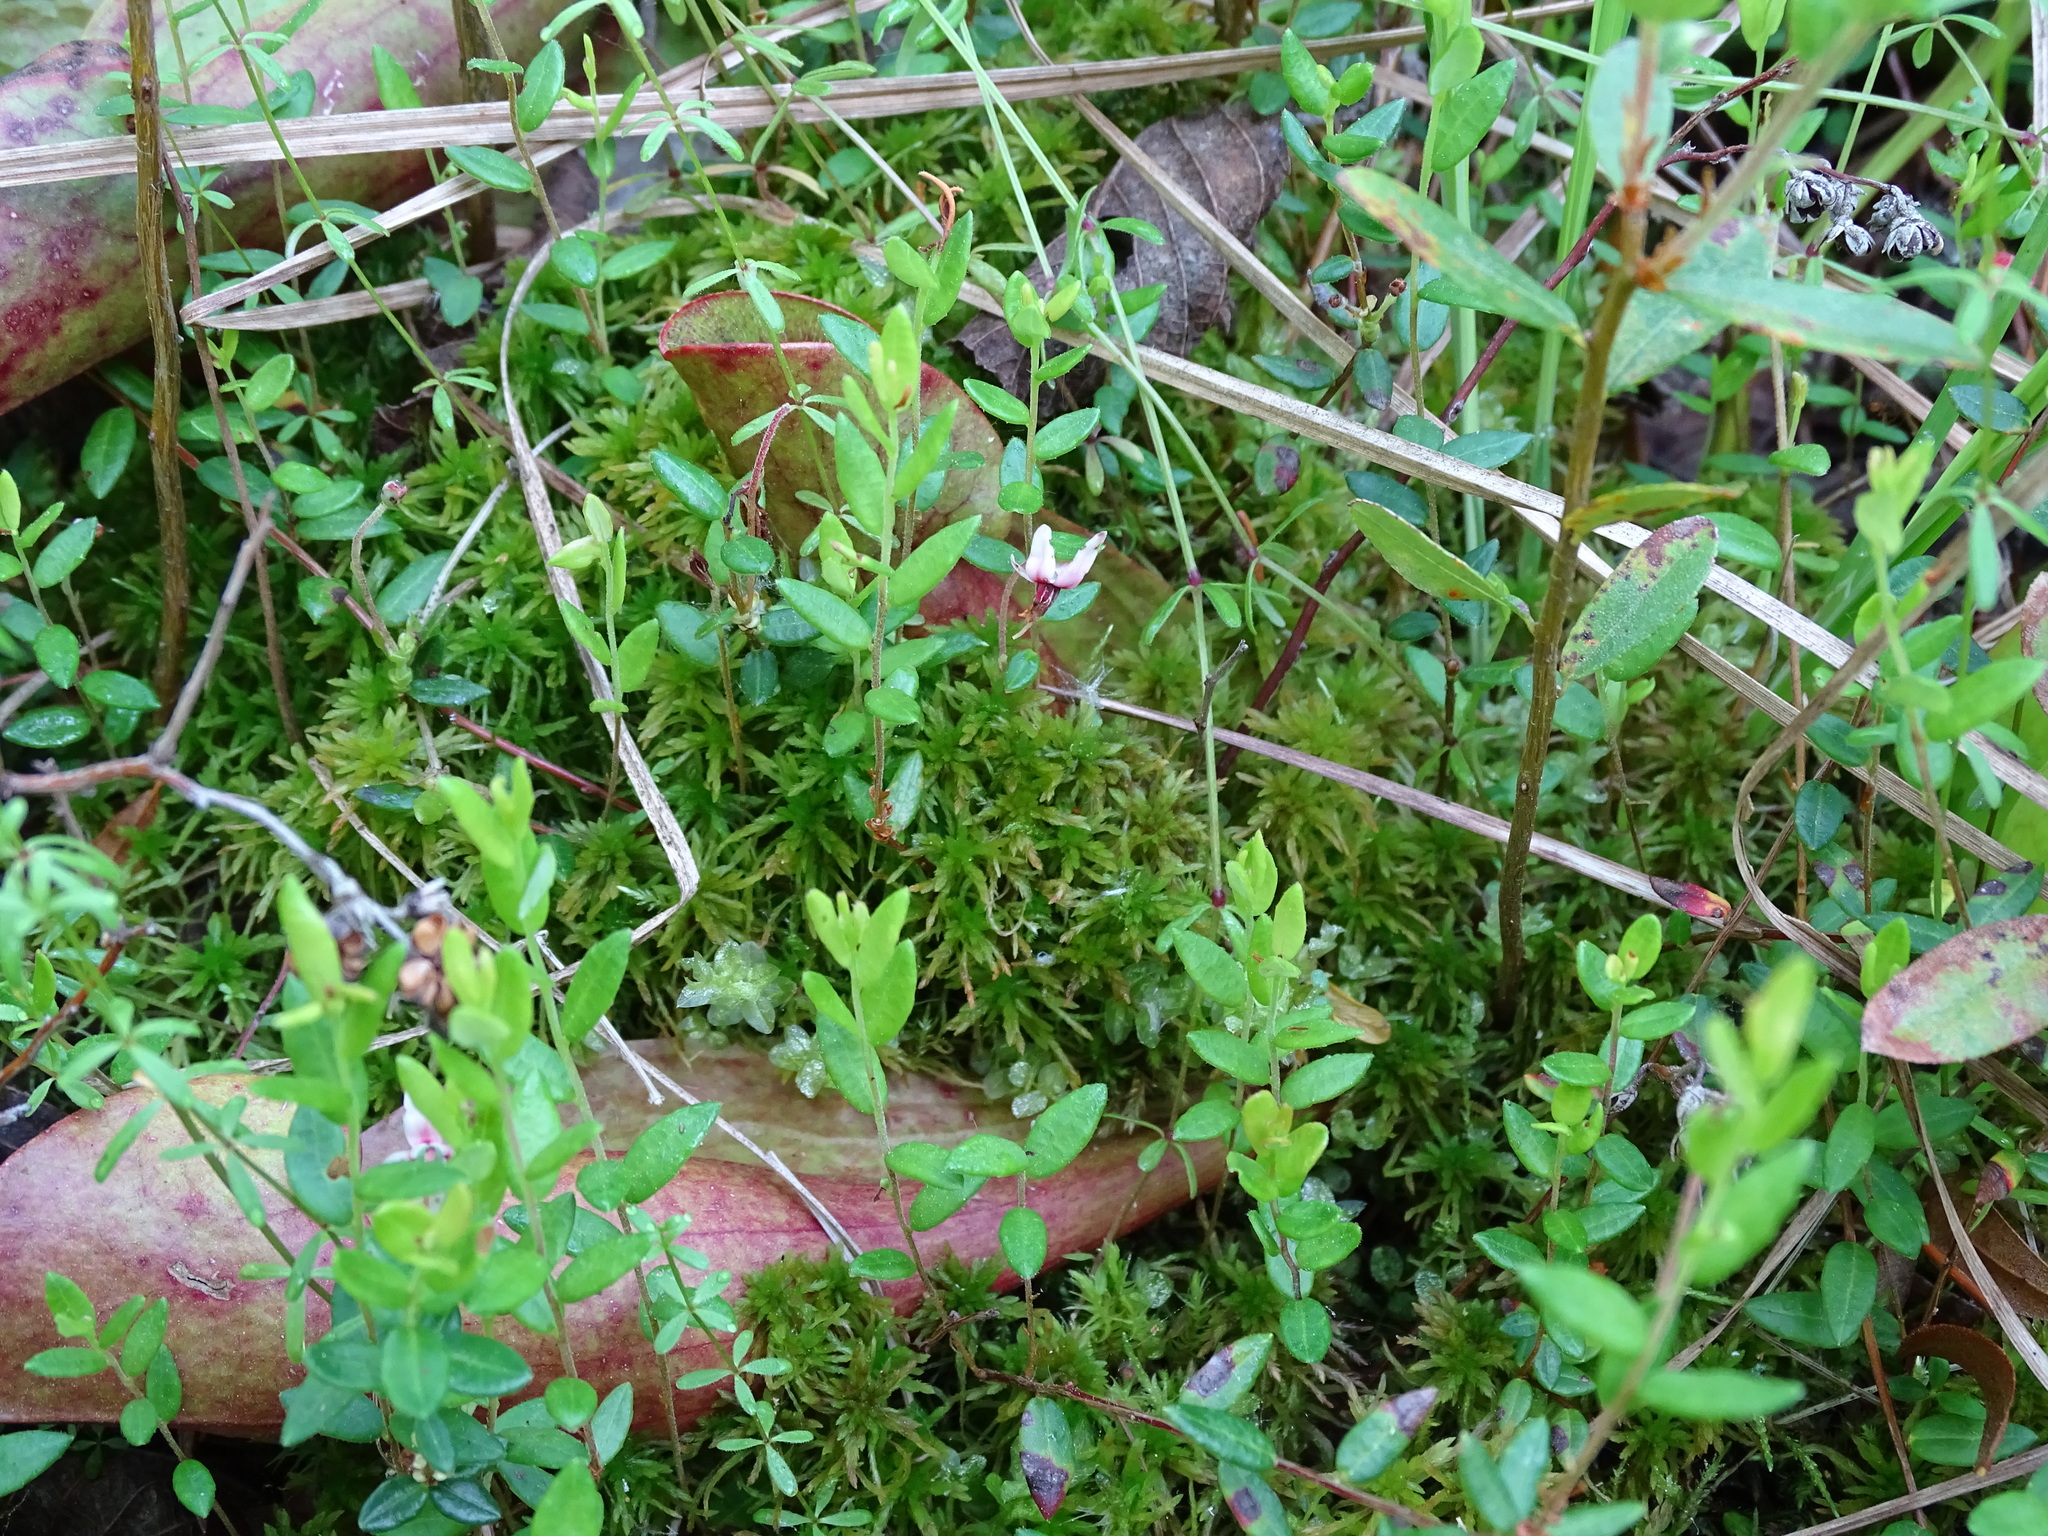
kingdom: Plantae
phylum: Tracheophyta
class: Magnoliopsida
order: Ericales
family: Ericaceae
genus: Vaccinium
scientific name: Vaccinium oxycoccos
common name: Cranberry
